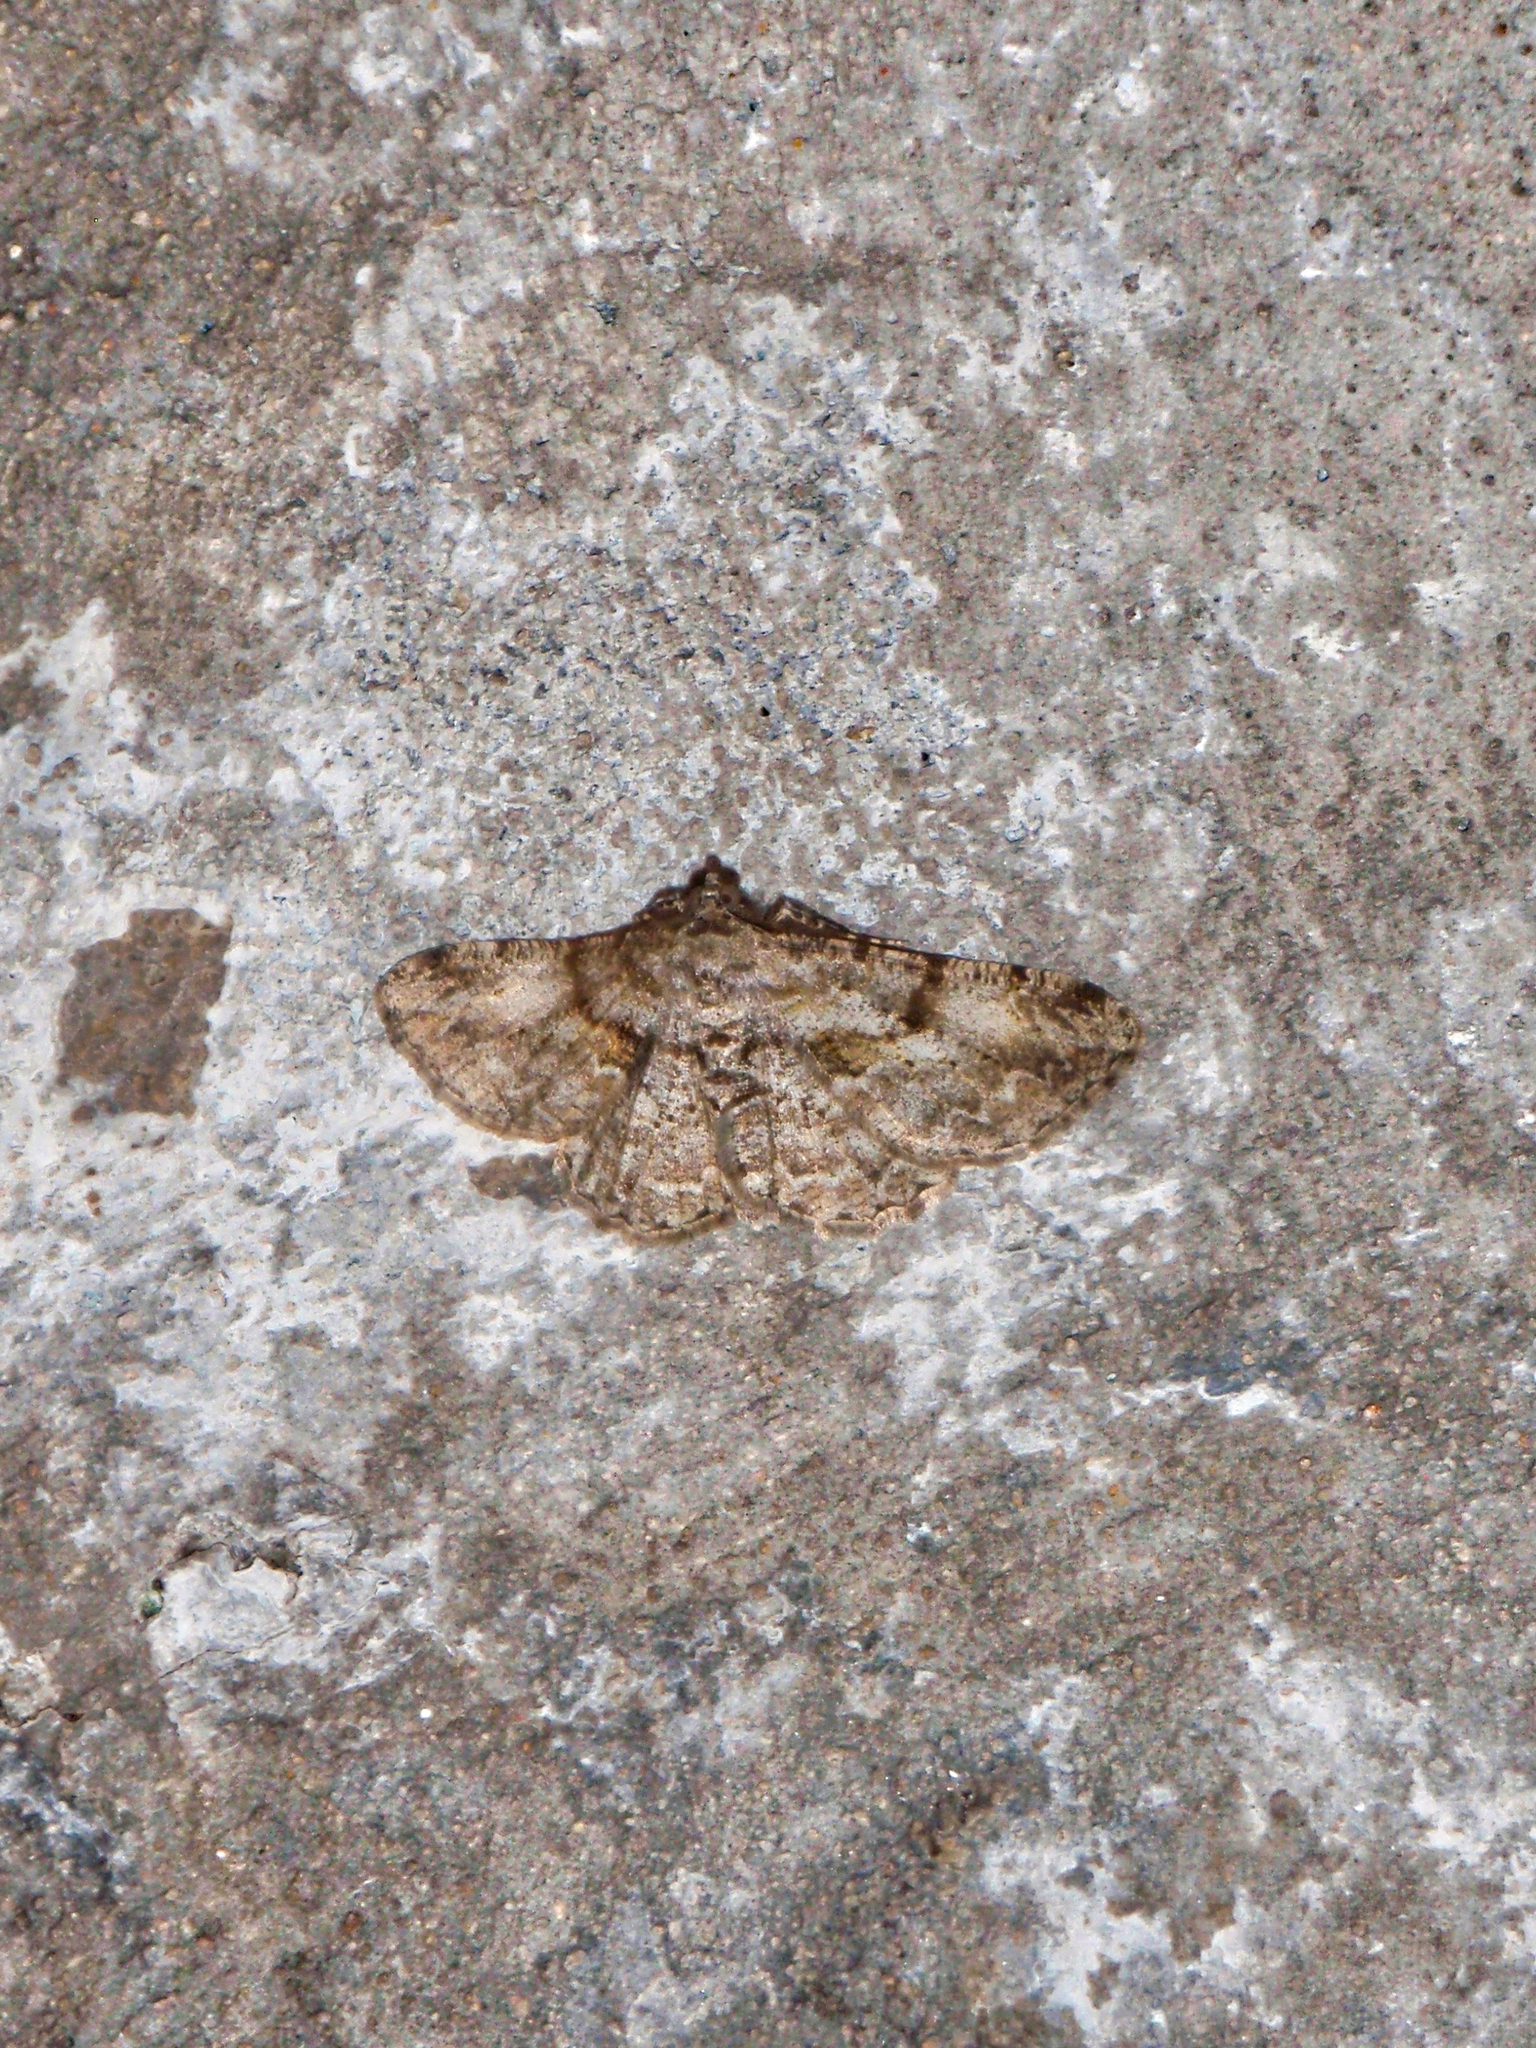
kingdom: Animalia
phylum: Arthropoda
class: Insecta
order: Lepidoptera
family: Geometridae
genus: Peribatodes
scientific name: Peribatodes rhomboidaria
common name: Willow beauty
